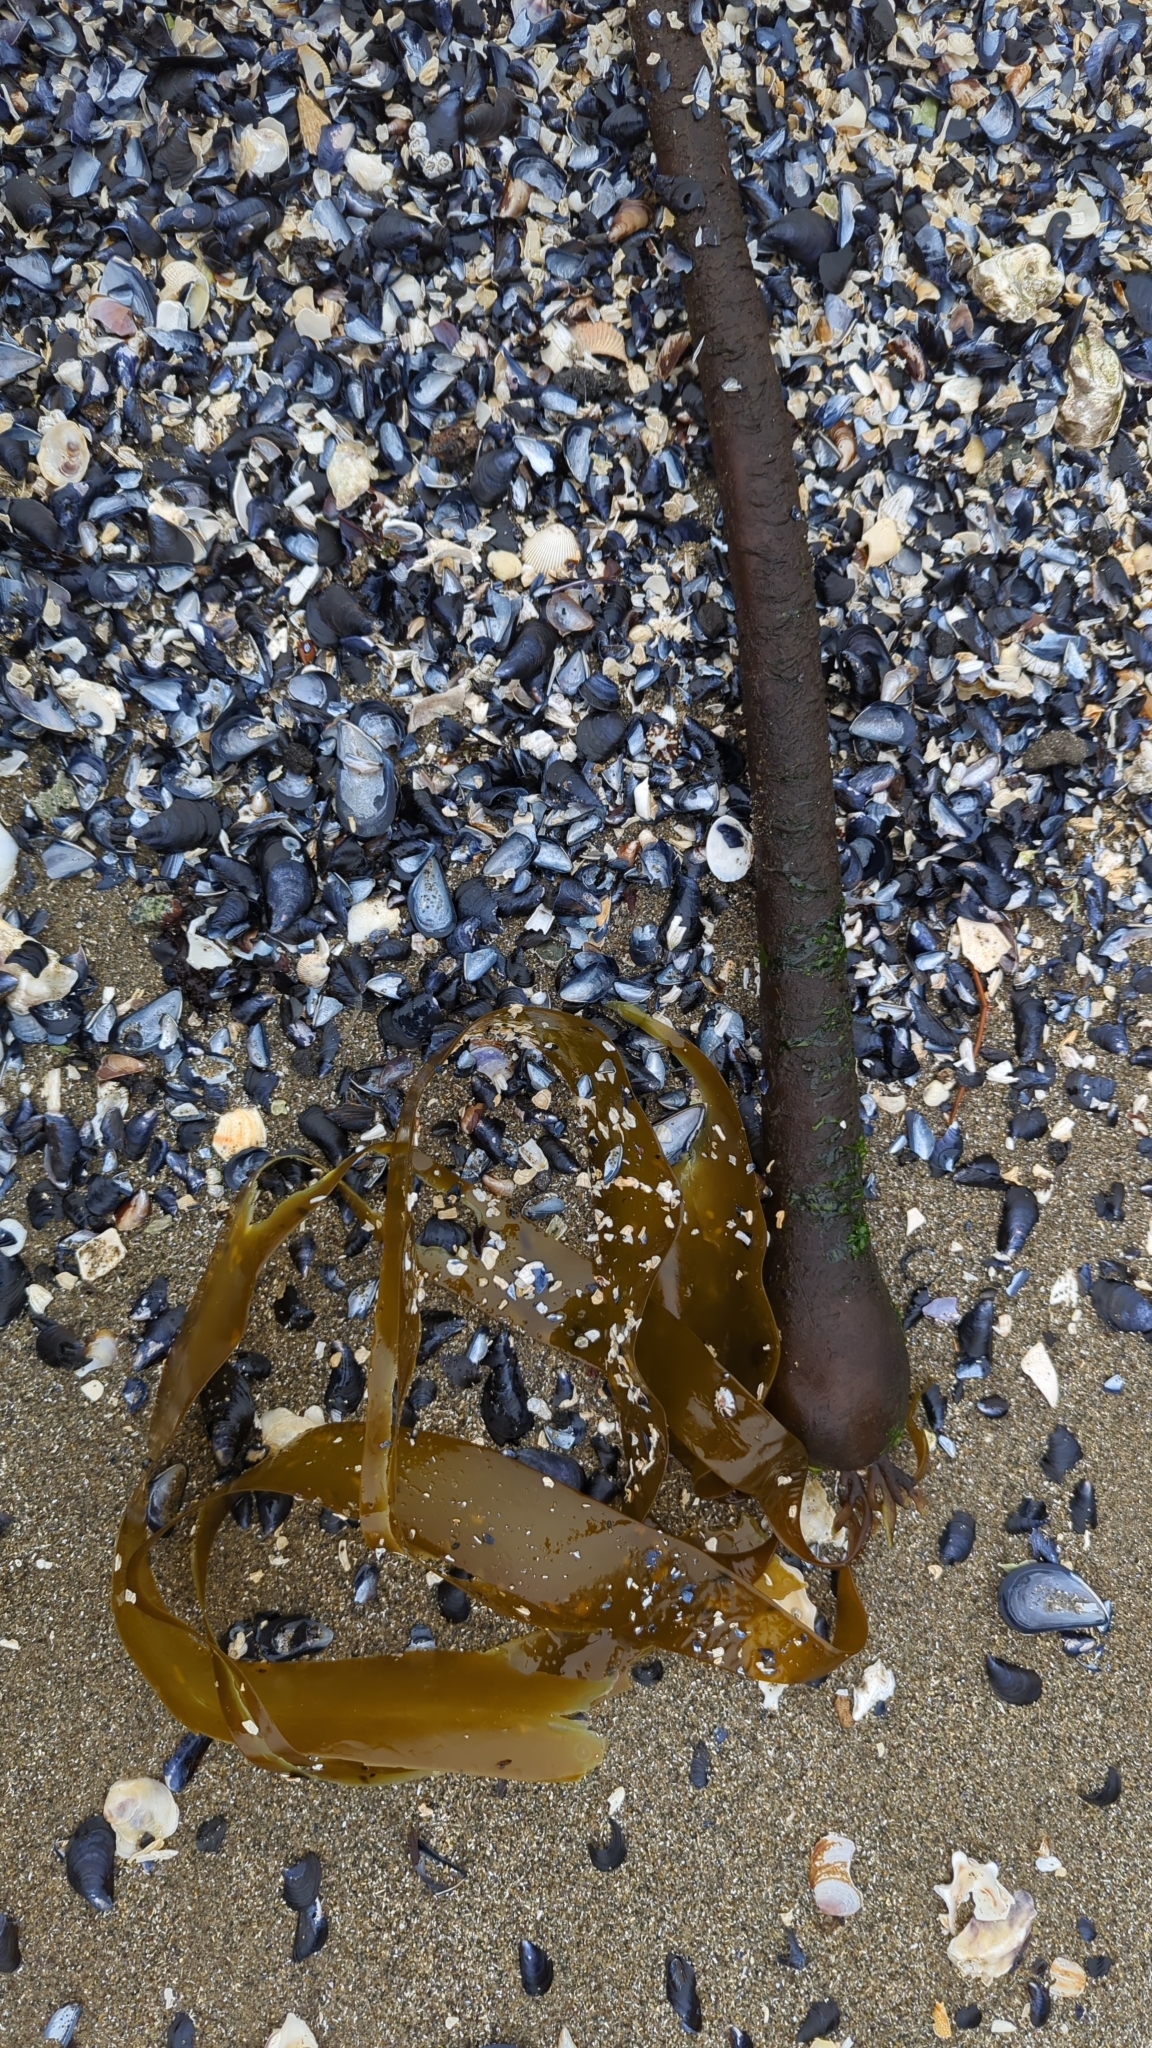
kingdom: Chromista
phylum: Ochrophyta
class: Phaeophyceae
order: Laminariales
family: Laminariaceae
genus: Nereocystis
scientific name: Nereocystis luetkeana
